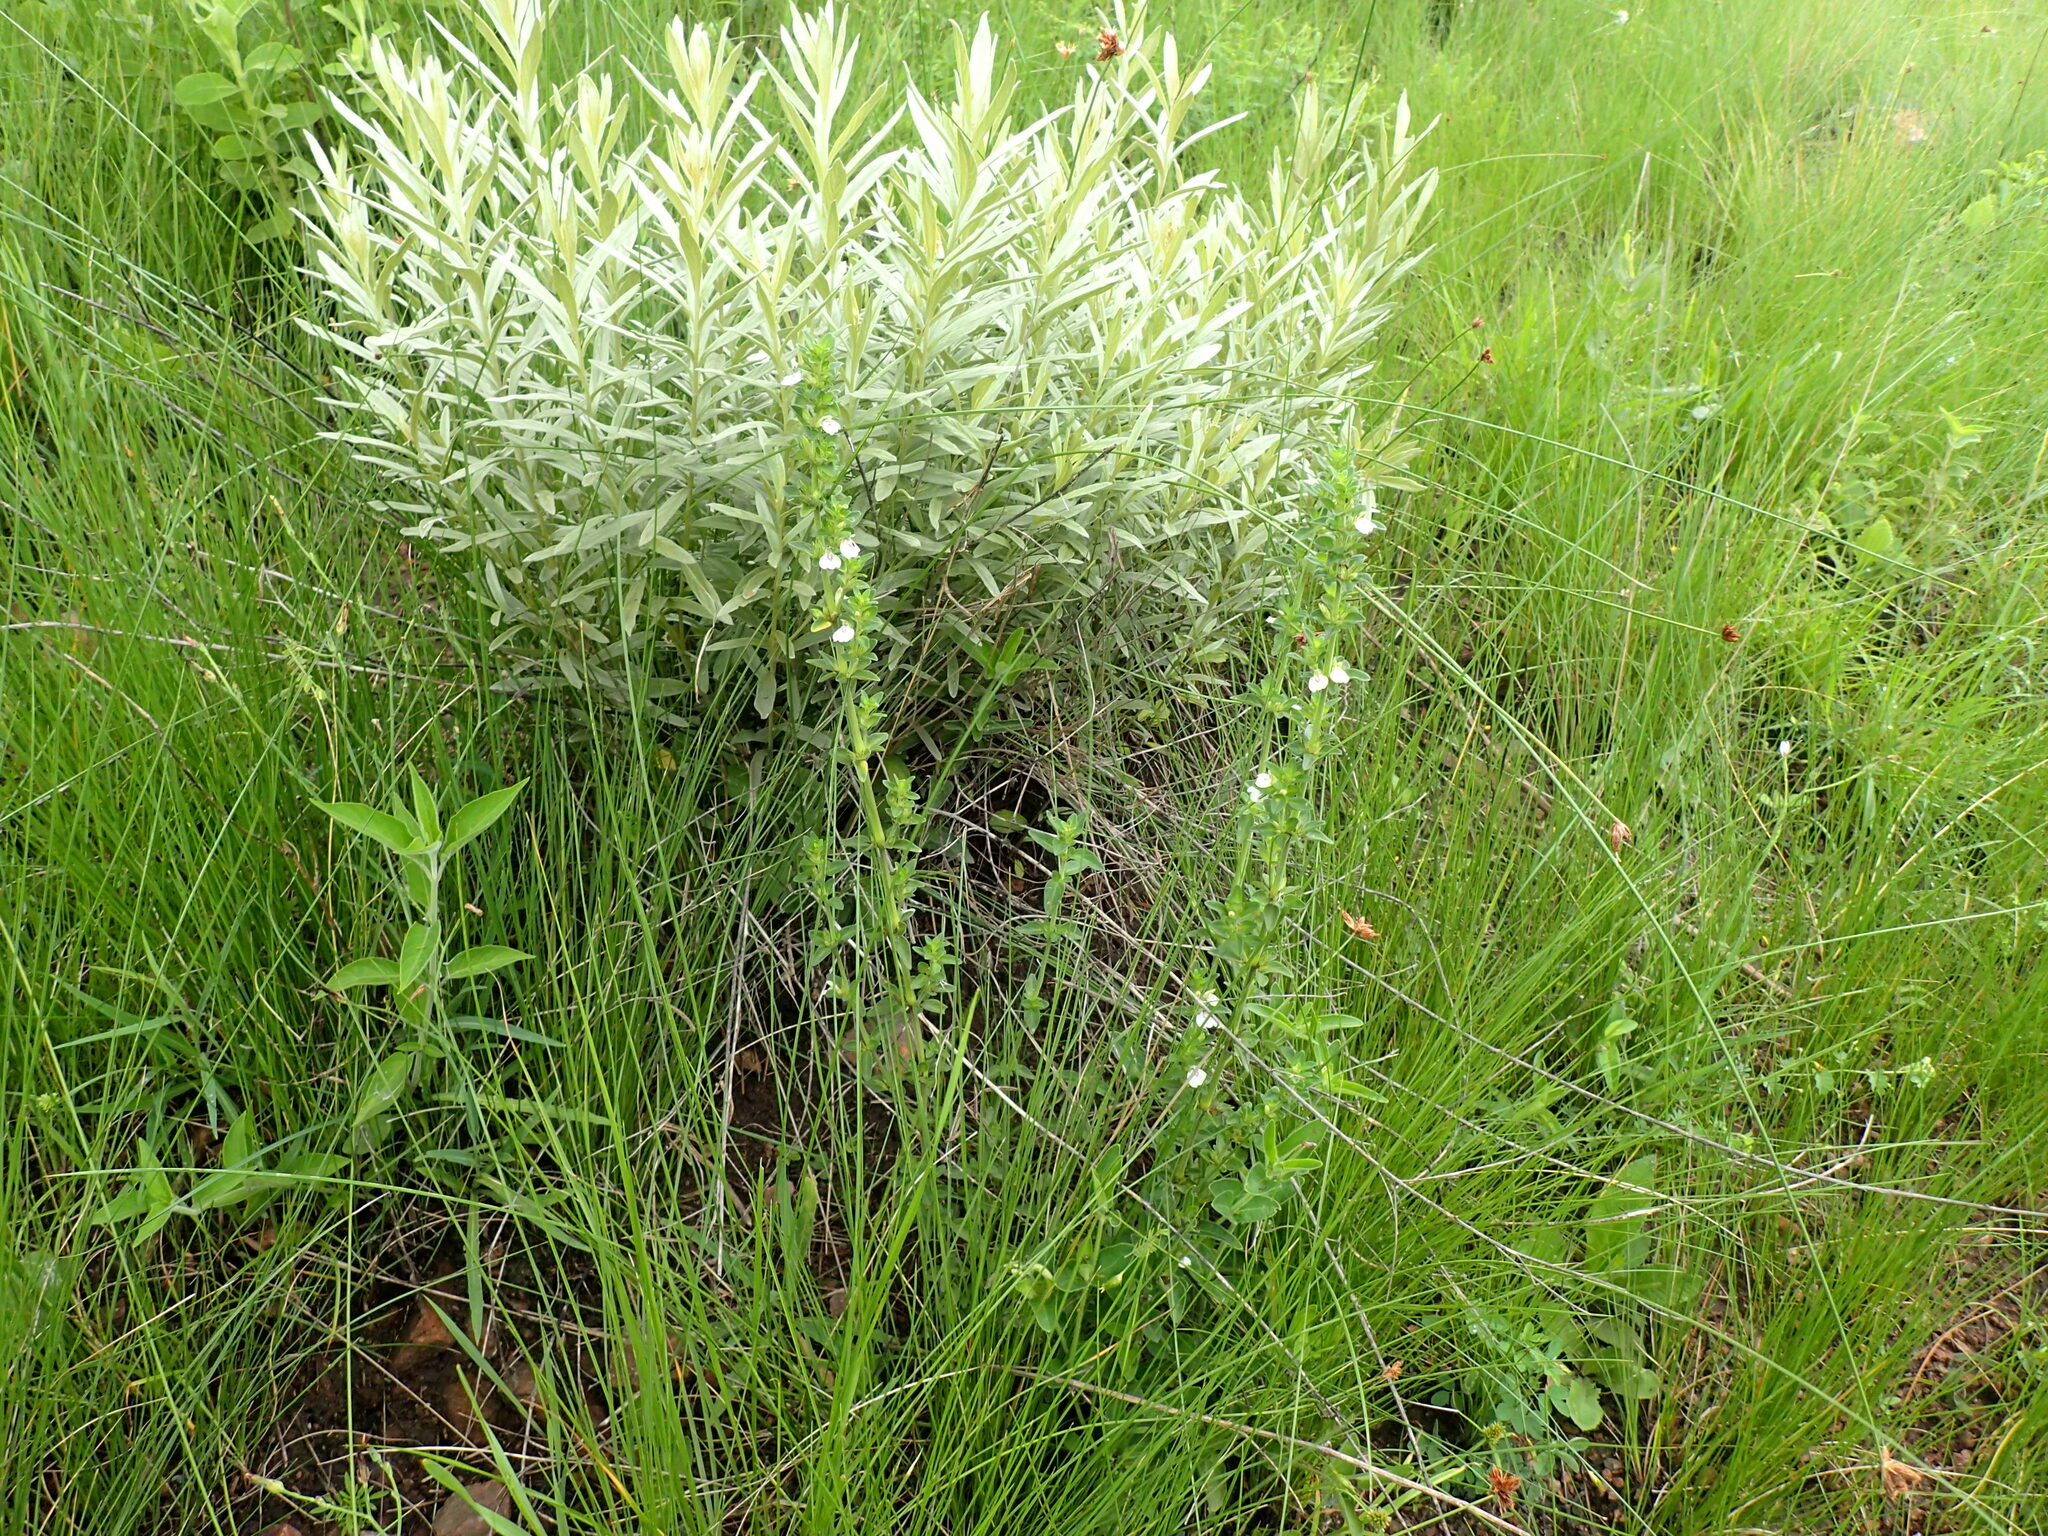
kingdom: Plantae
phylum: Tracheophyta
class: Magnoliopsida
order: Lamiales
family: Acanthaceae
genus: Justicia
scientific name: Justicia protracta
